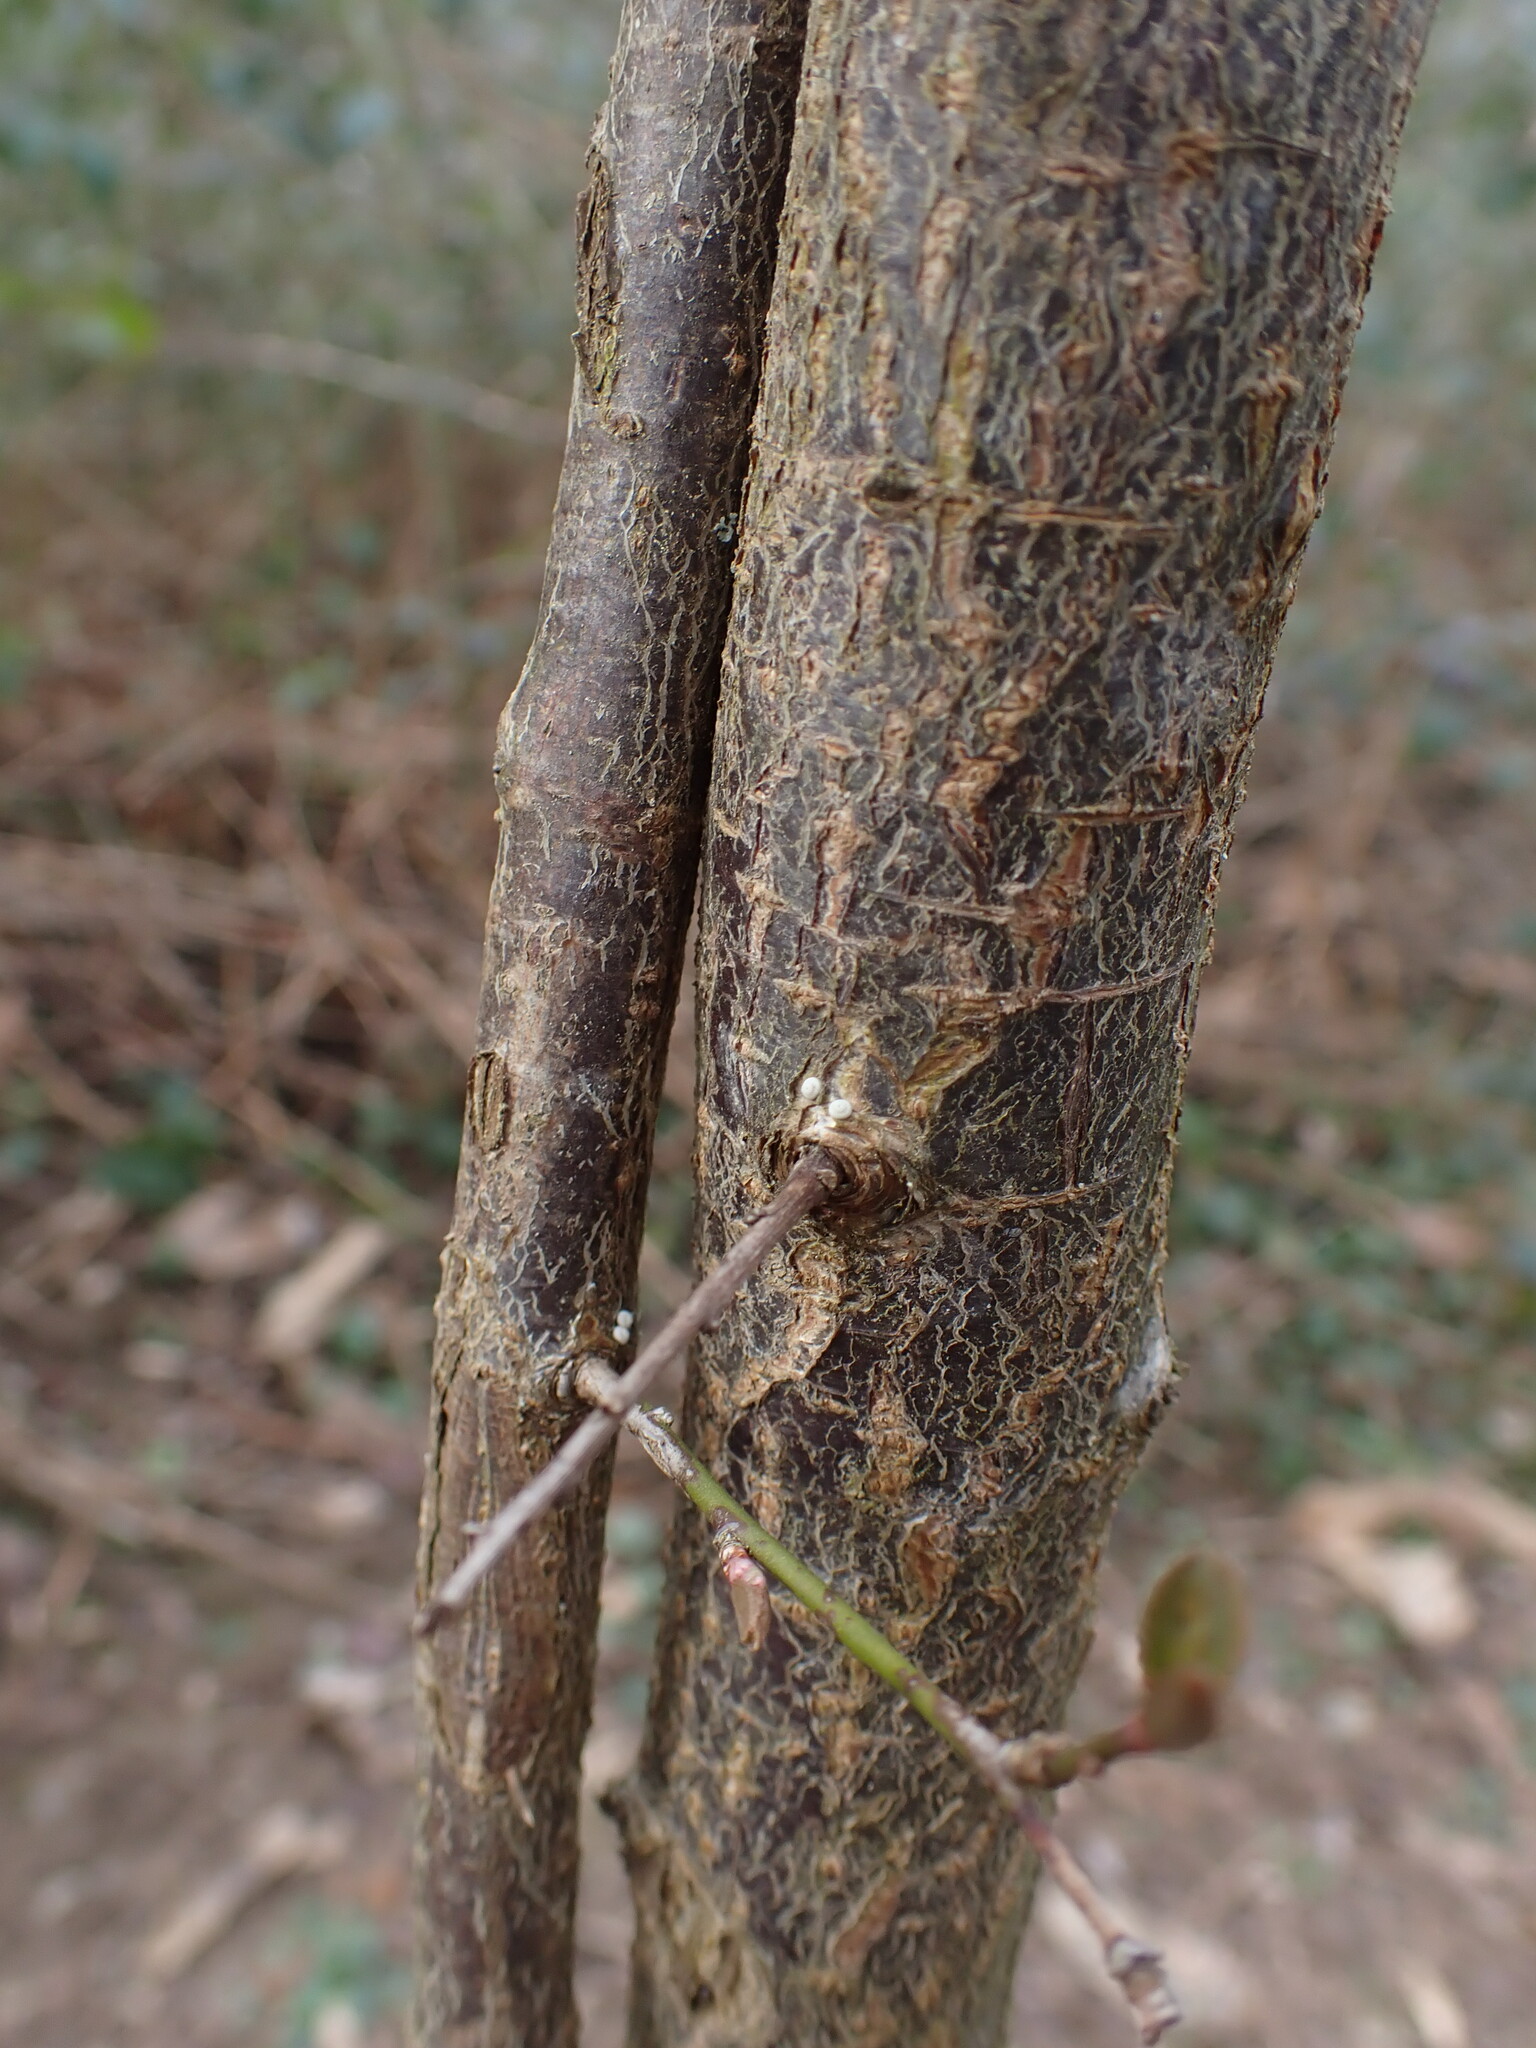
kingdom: Animalia
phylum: Arthropoda
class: Insecta
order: Lepidoptera
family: Lycaenidae
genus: Thecla
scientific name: Thecla betulae
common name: Brown hairstreak
